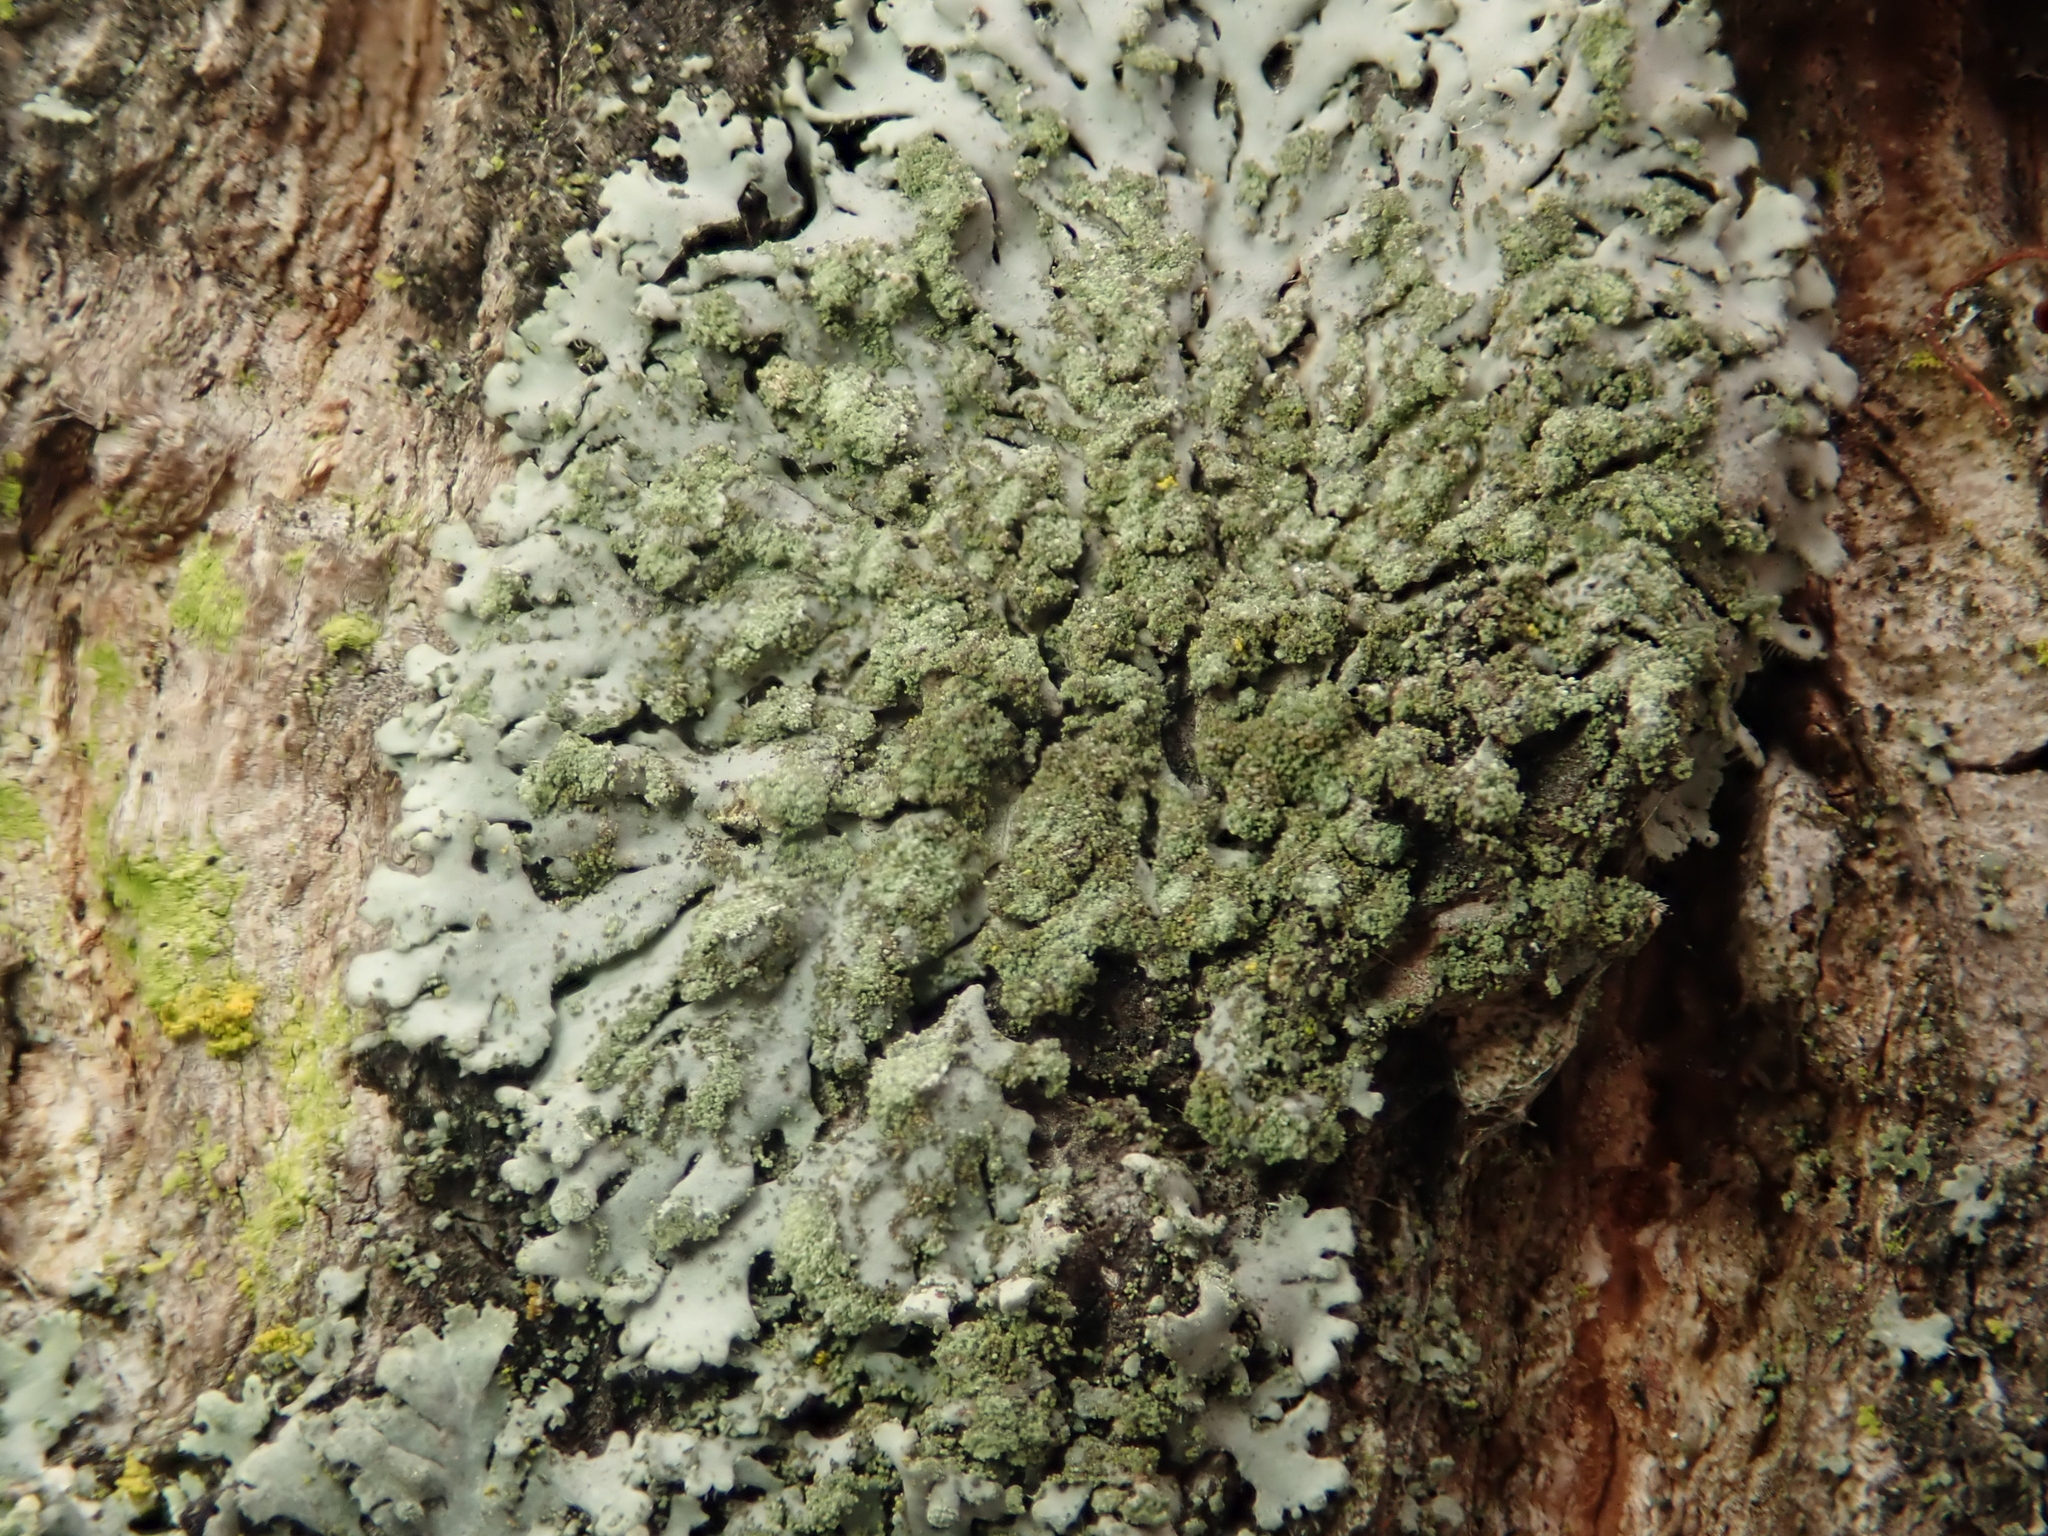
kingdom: Fungi
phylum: Ascomycota
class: Lecanoromycetes
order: Caliciales
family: Physciaceae
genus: Phaeophyscia
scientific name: Phaeophyscia orbicularis
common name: Mealy shadow lichen
